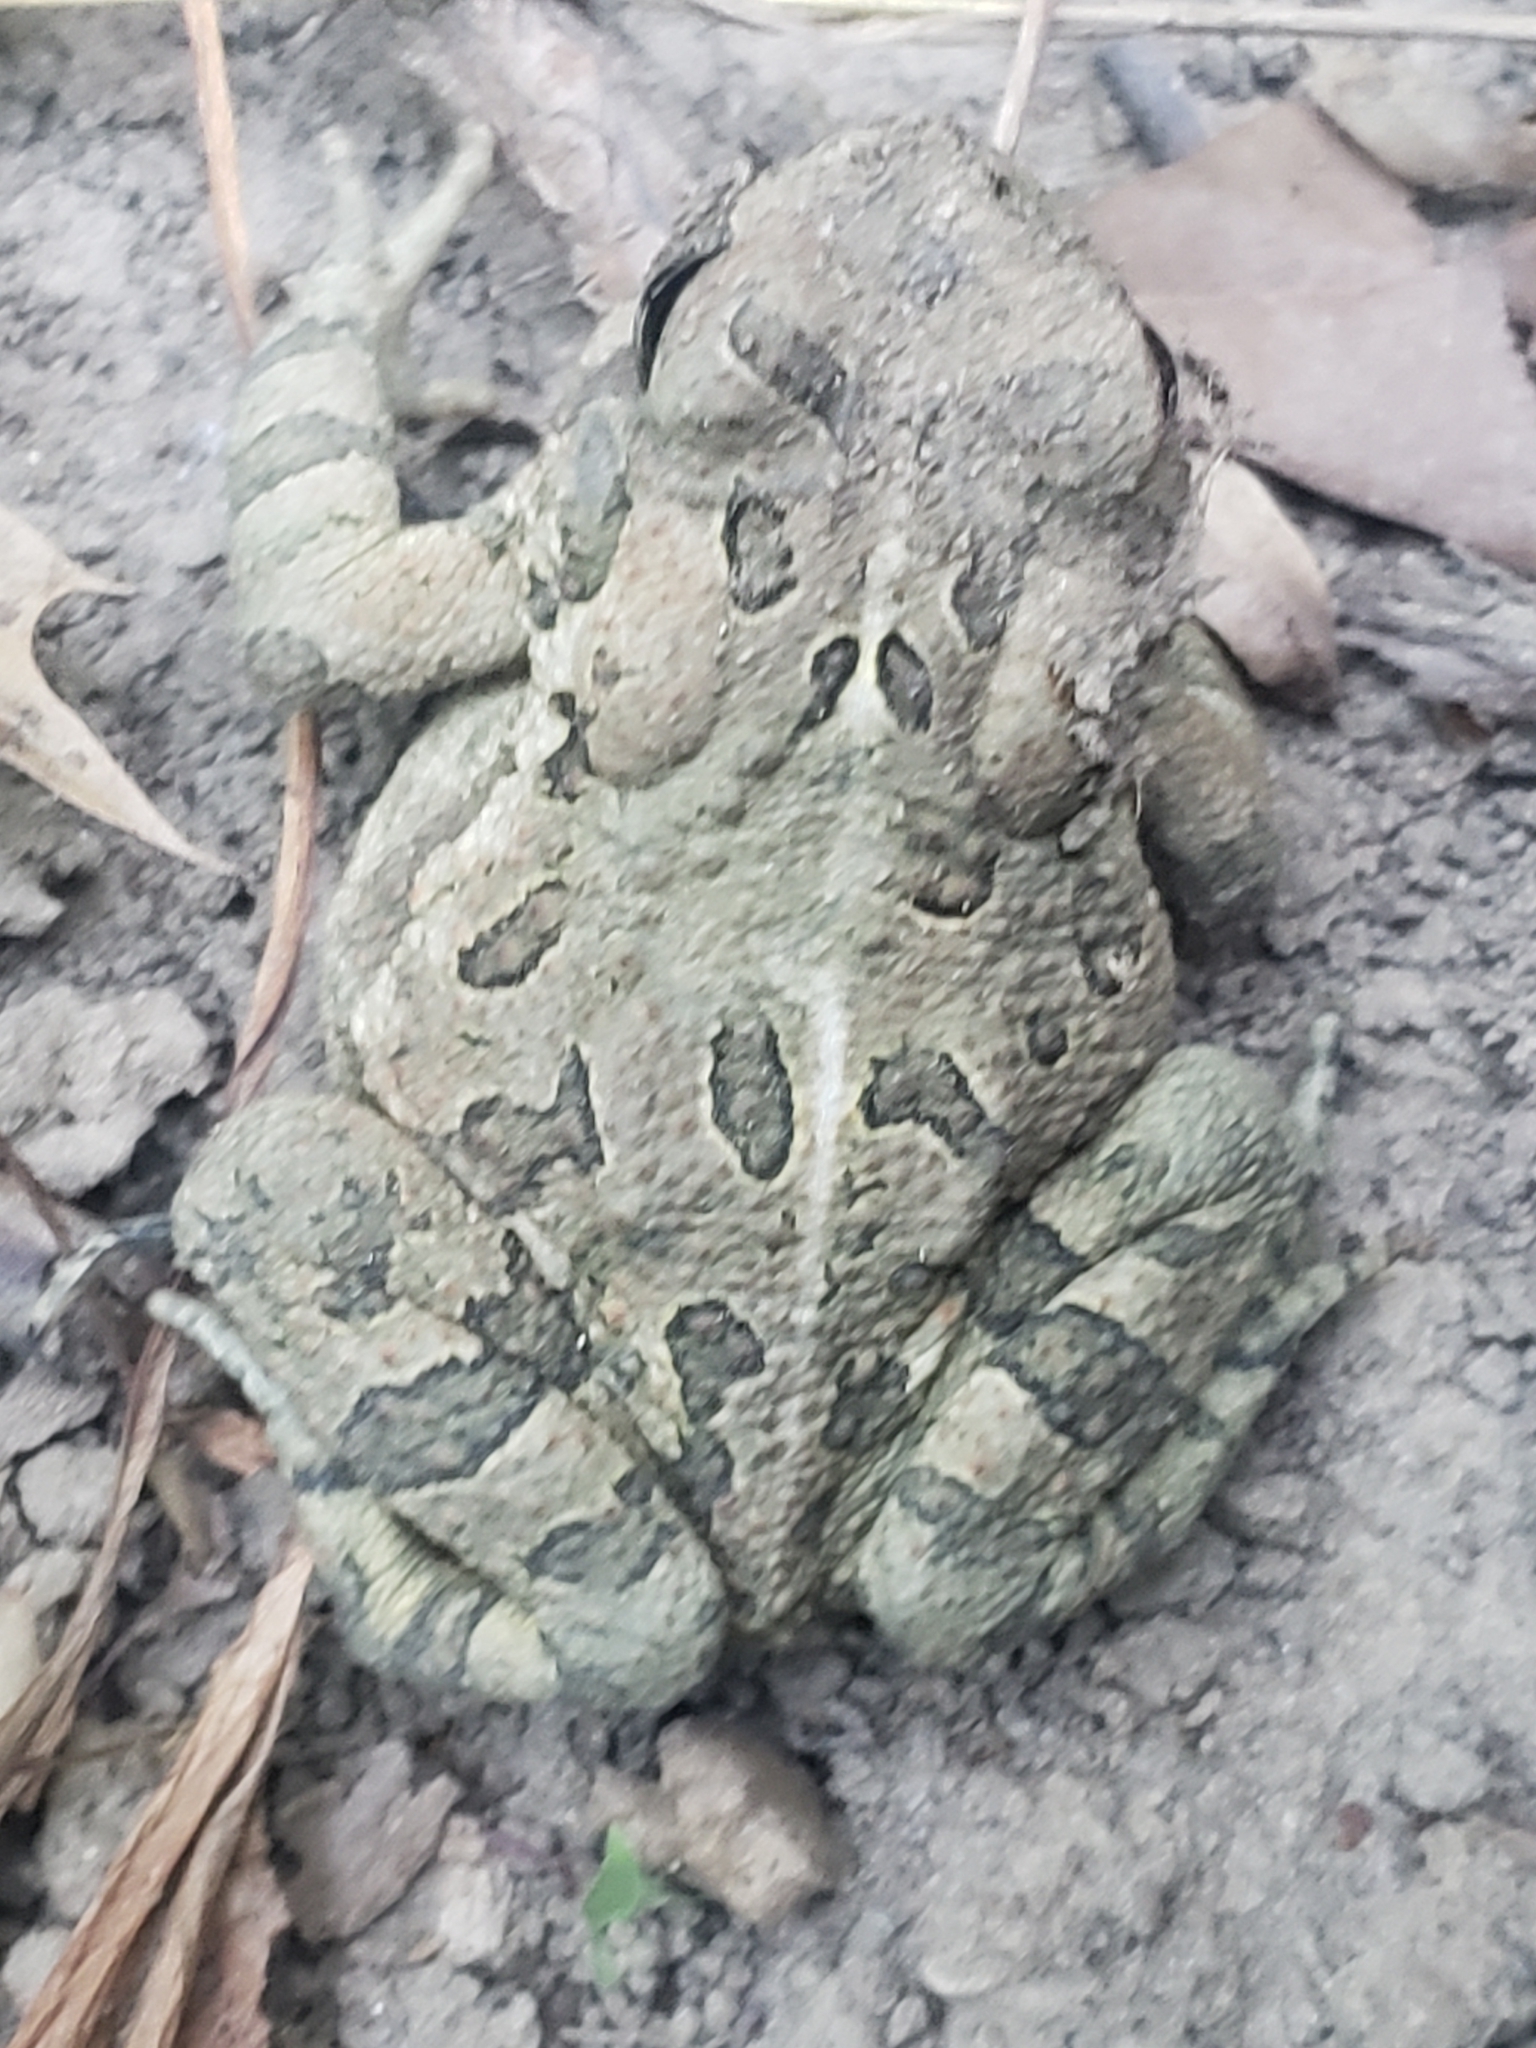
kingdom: Animalia
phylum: Chordata
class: Amphibia
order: Anura
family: Bufonidae
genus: Anaxyrus
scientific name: Anaxyrus fowleri
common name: Fowler's toad
